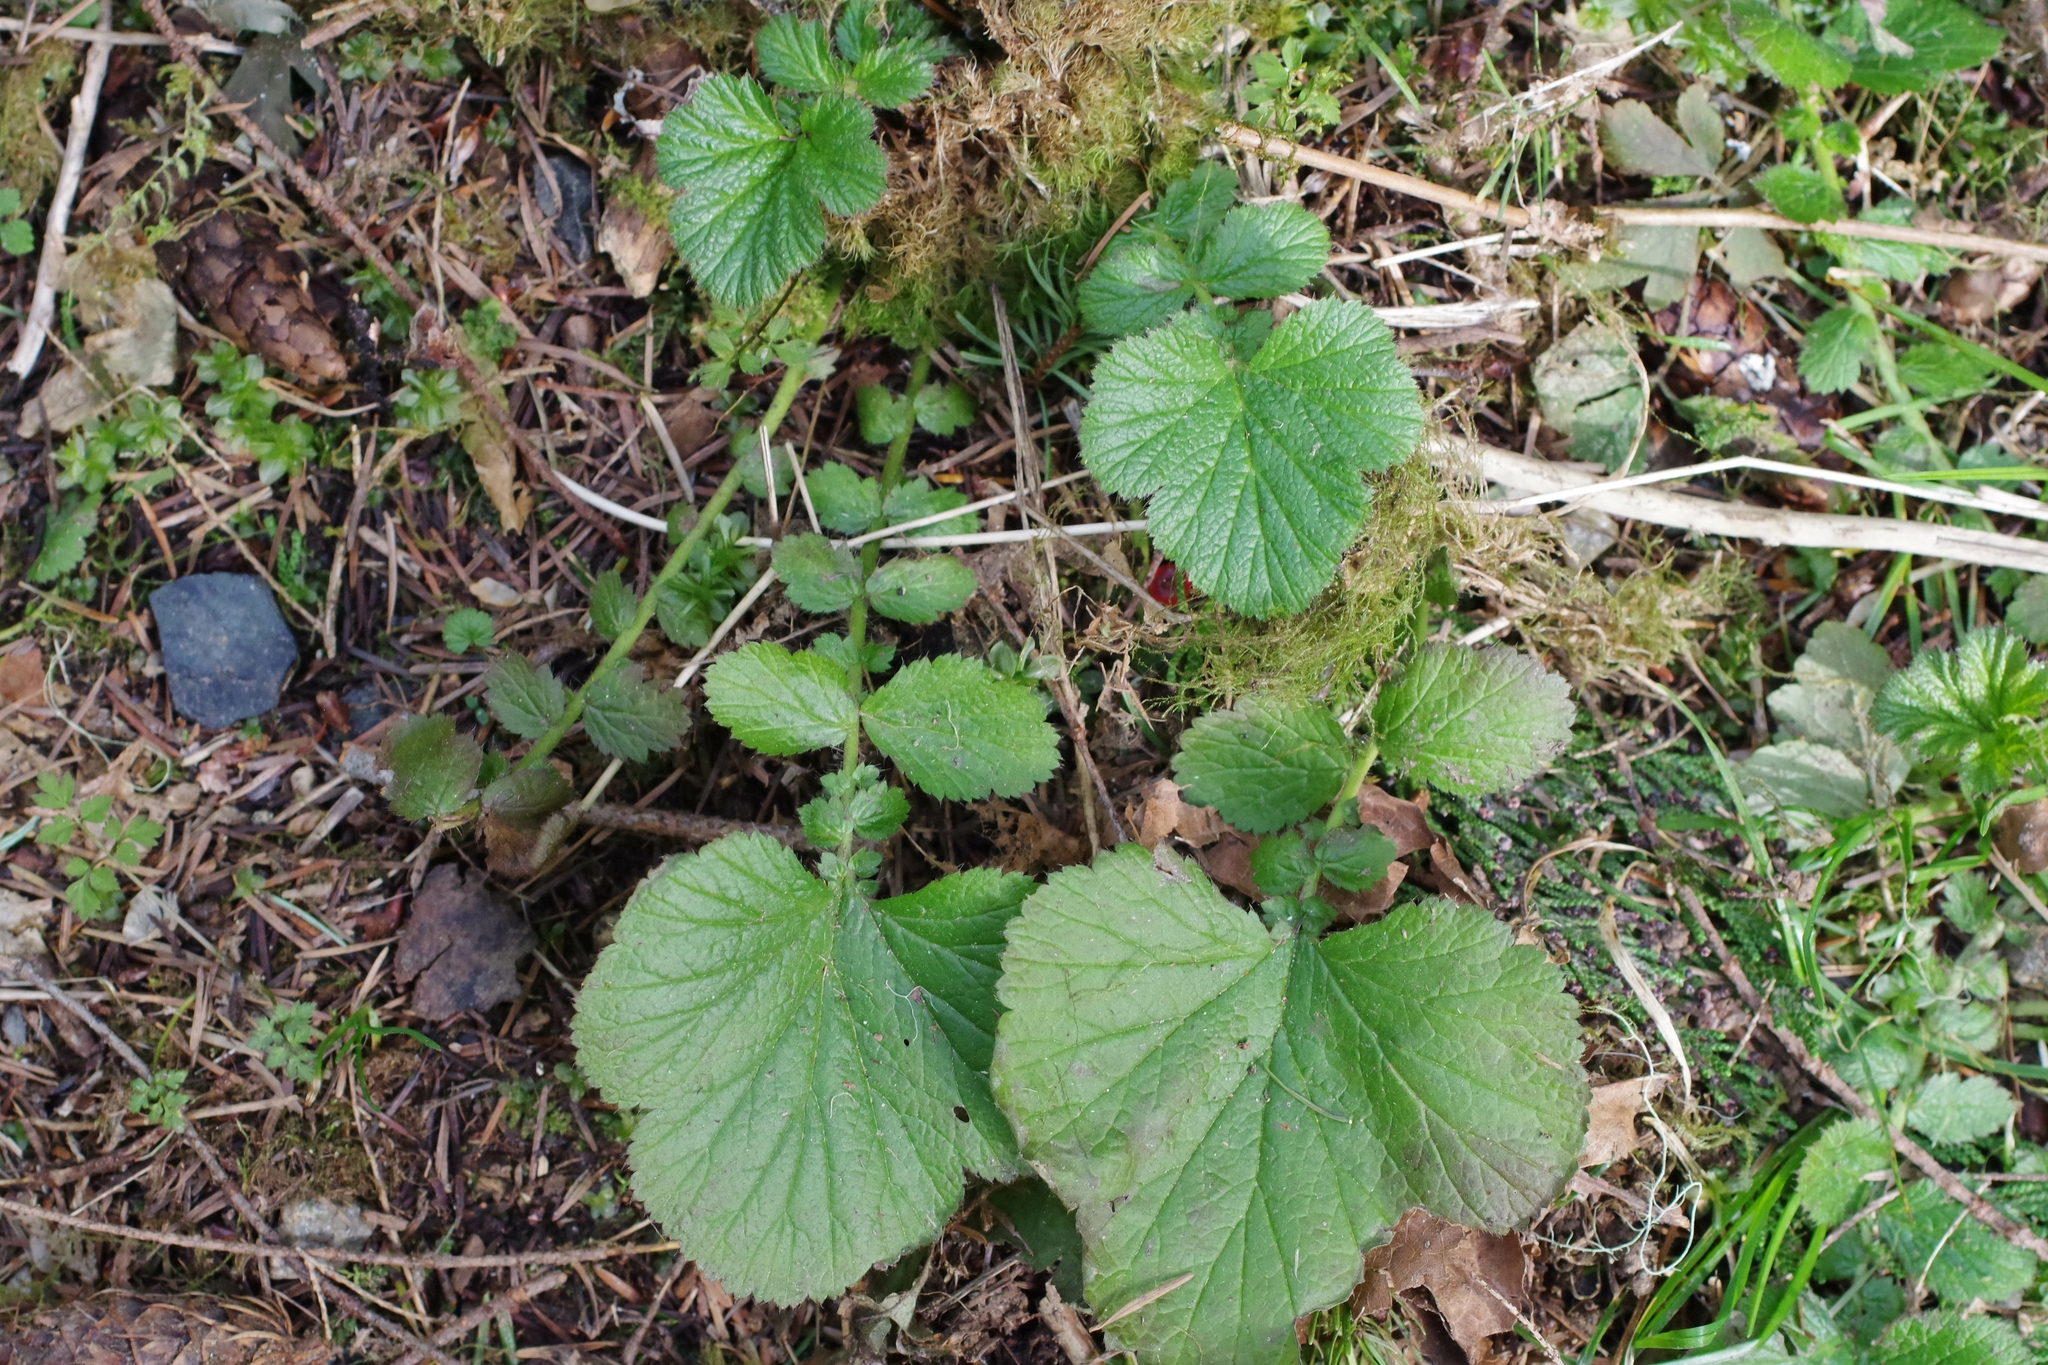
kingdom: Plantae
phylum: Tracheophyta
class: Magnoliopsida
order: Rosales
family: Rosaceae
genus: Geum
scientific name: Geum macrophyllum
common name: Large-leaved avens
